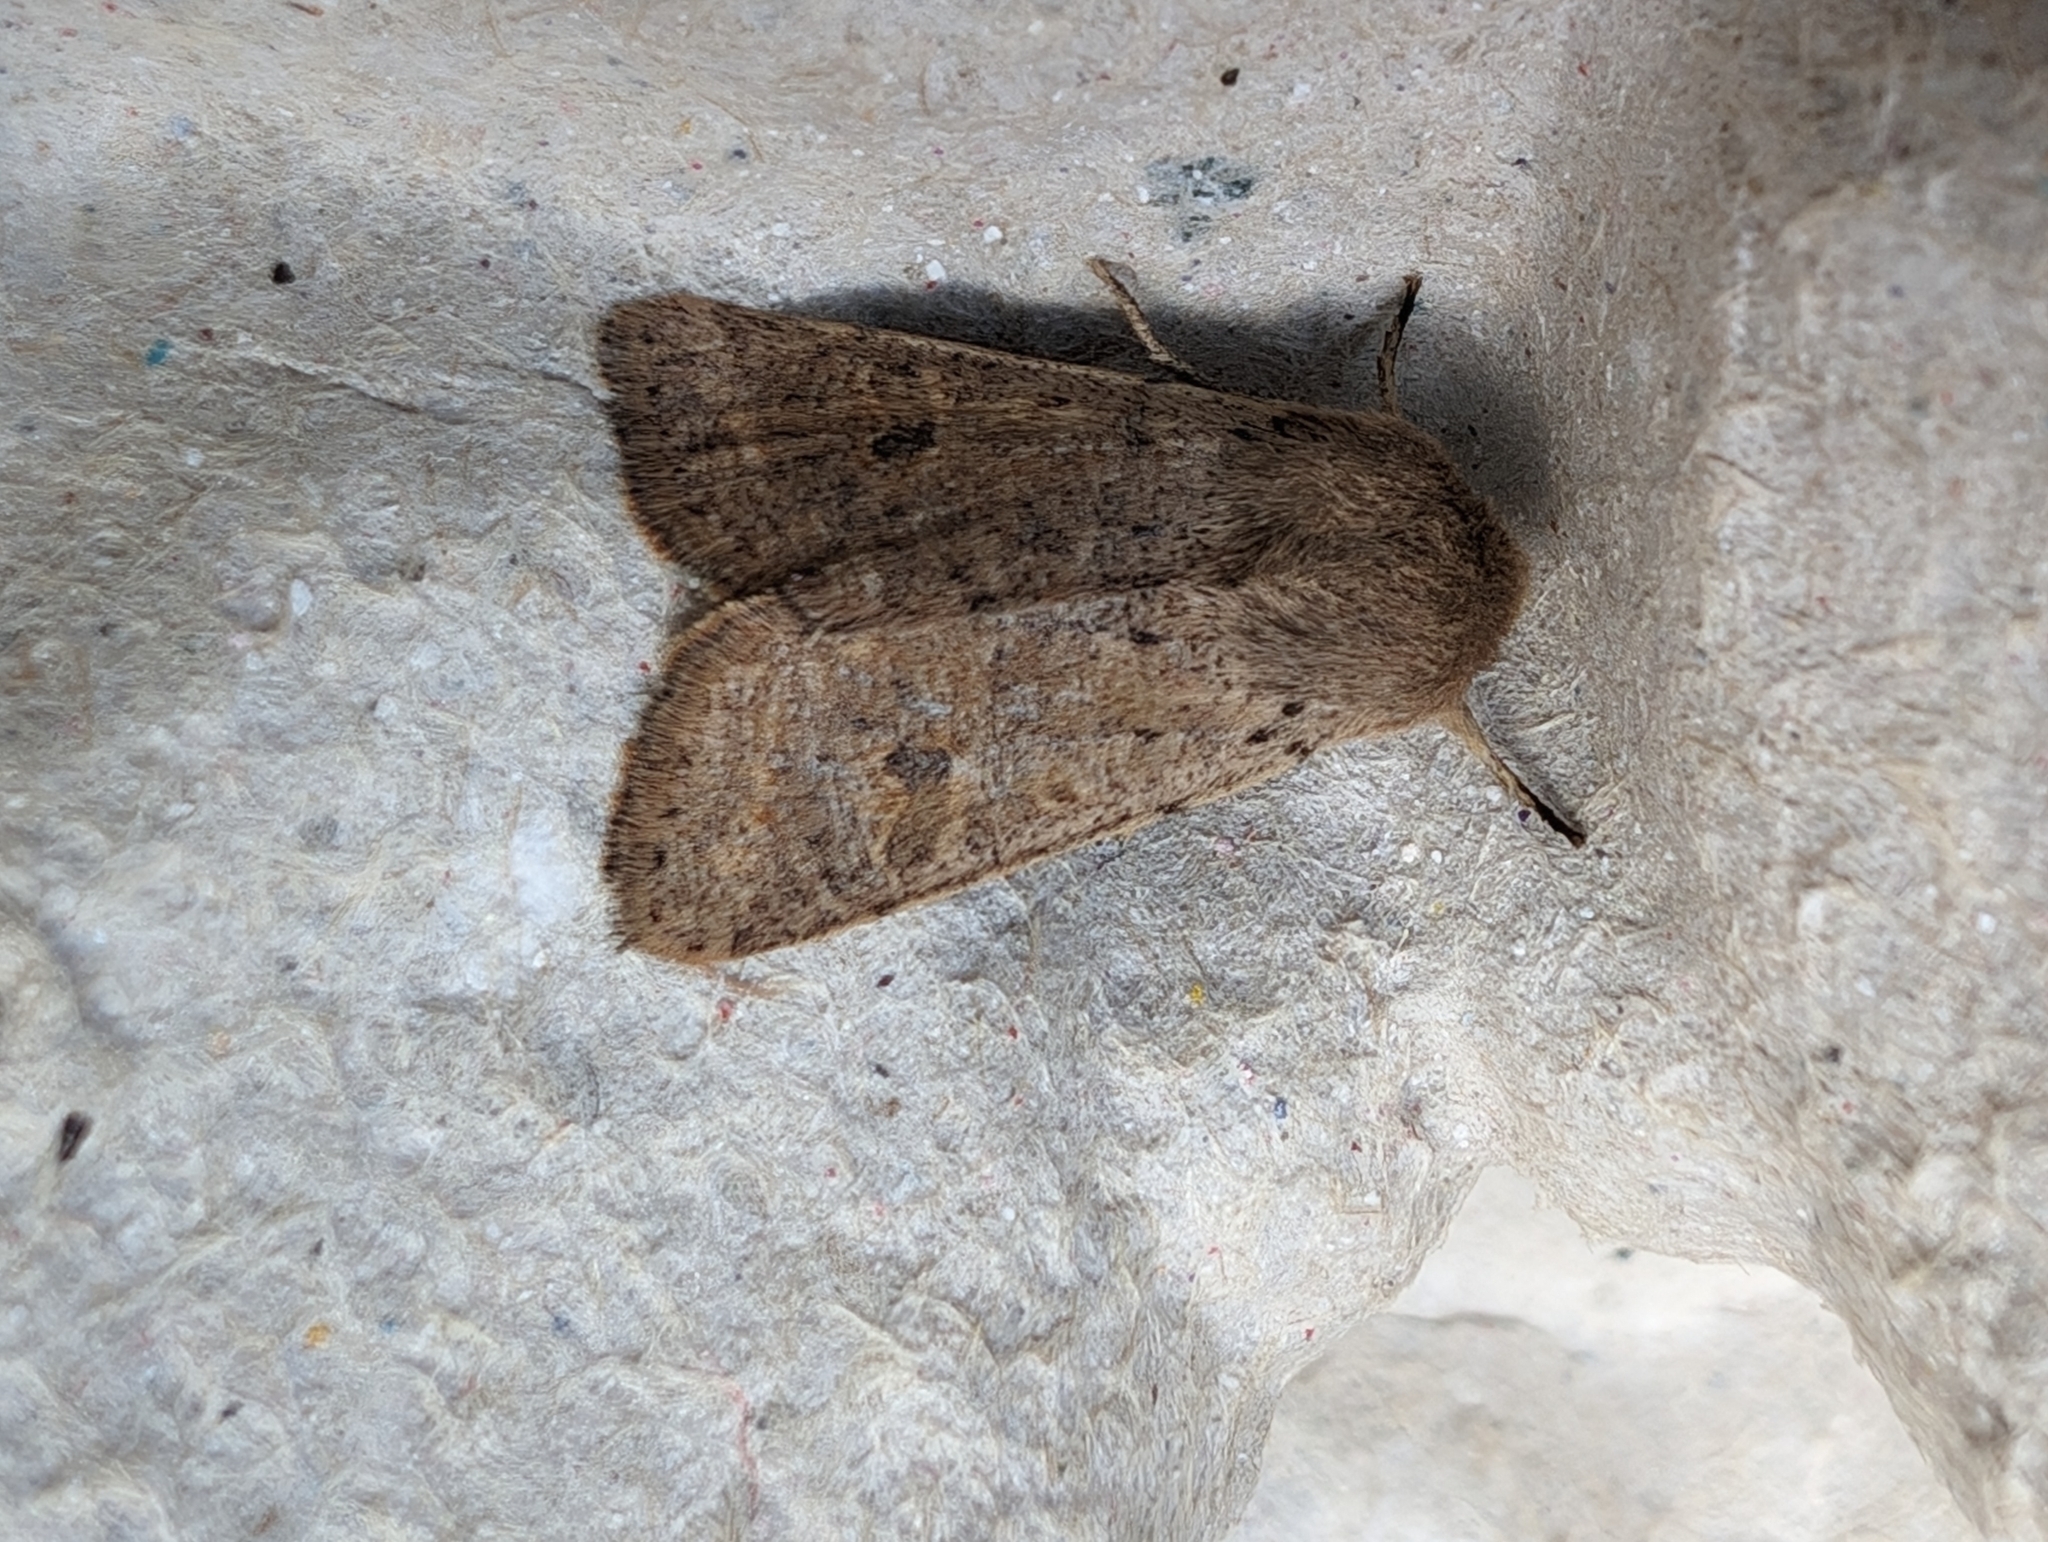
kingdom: Animalia
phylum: Arthropoda
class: Insecta
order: Lepidoptera
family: Noctuidae
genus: Orthosia
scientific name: Orthosia cruda
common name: Small quaker
